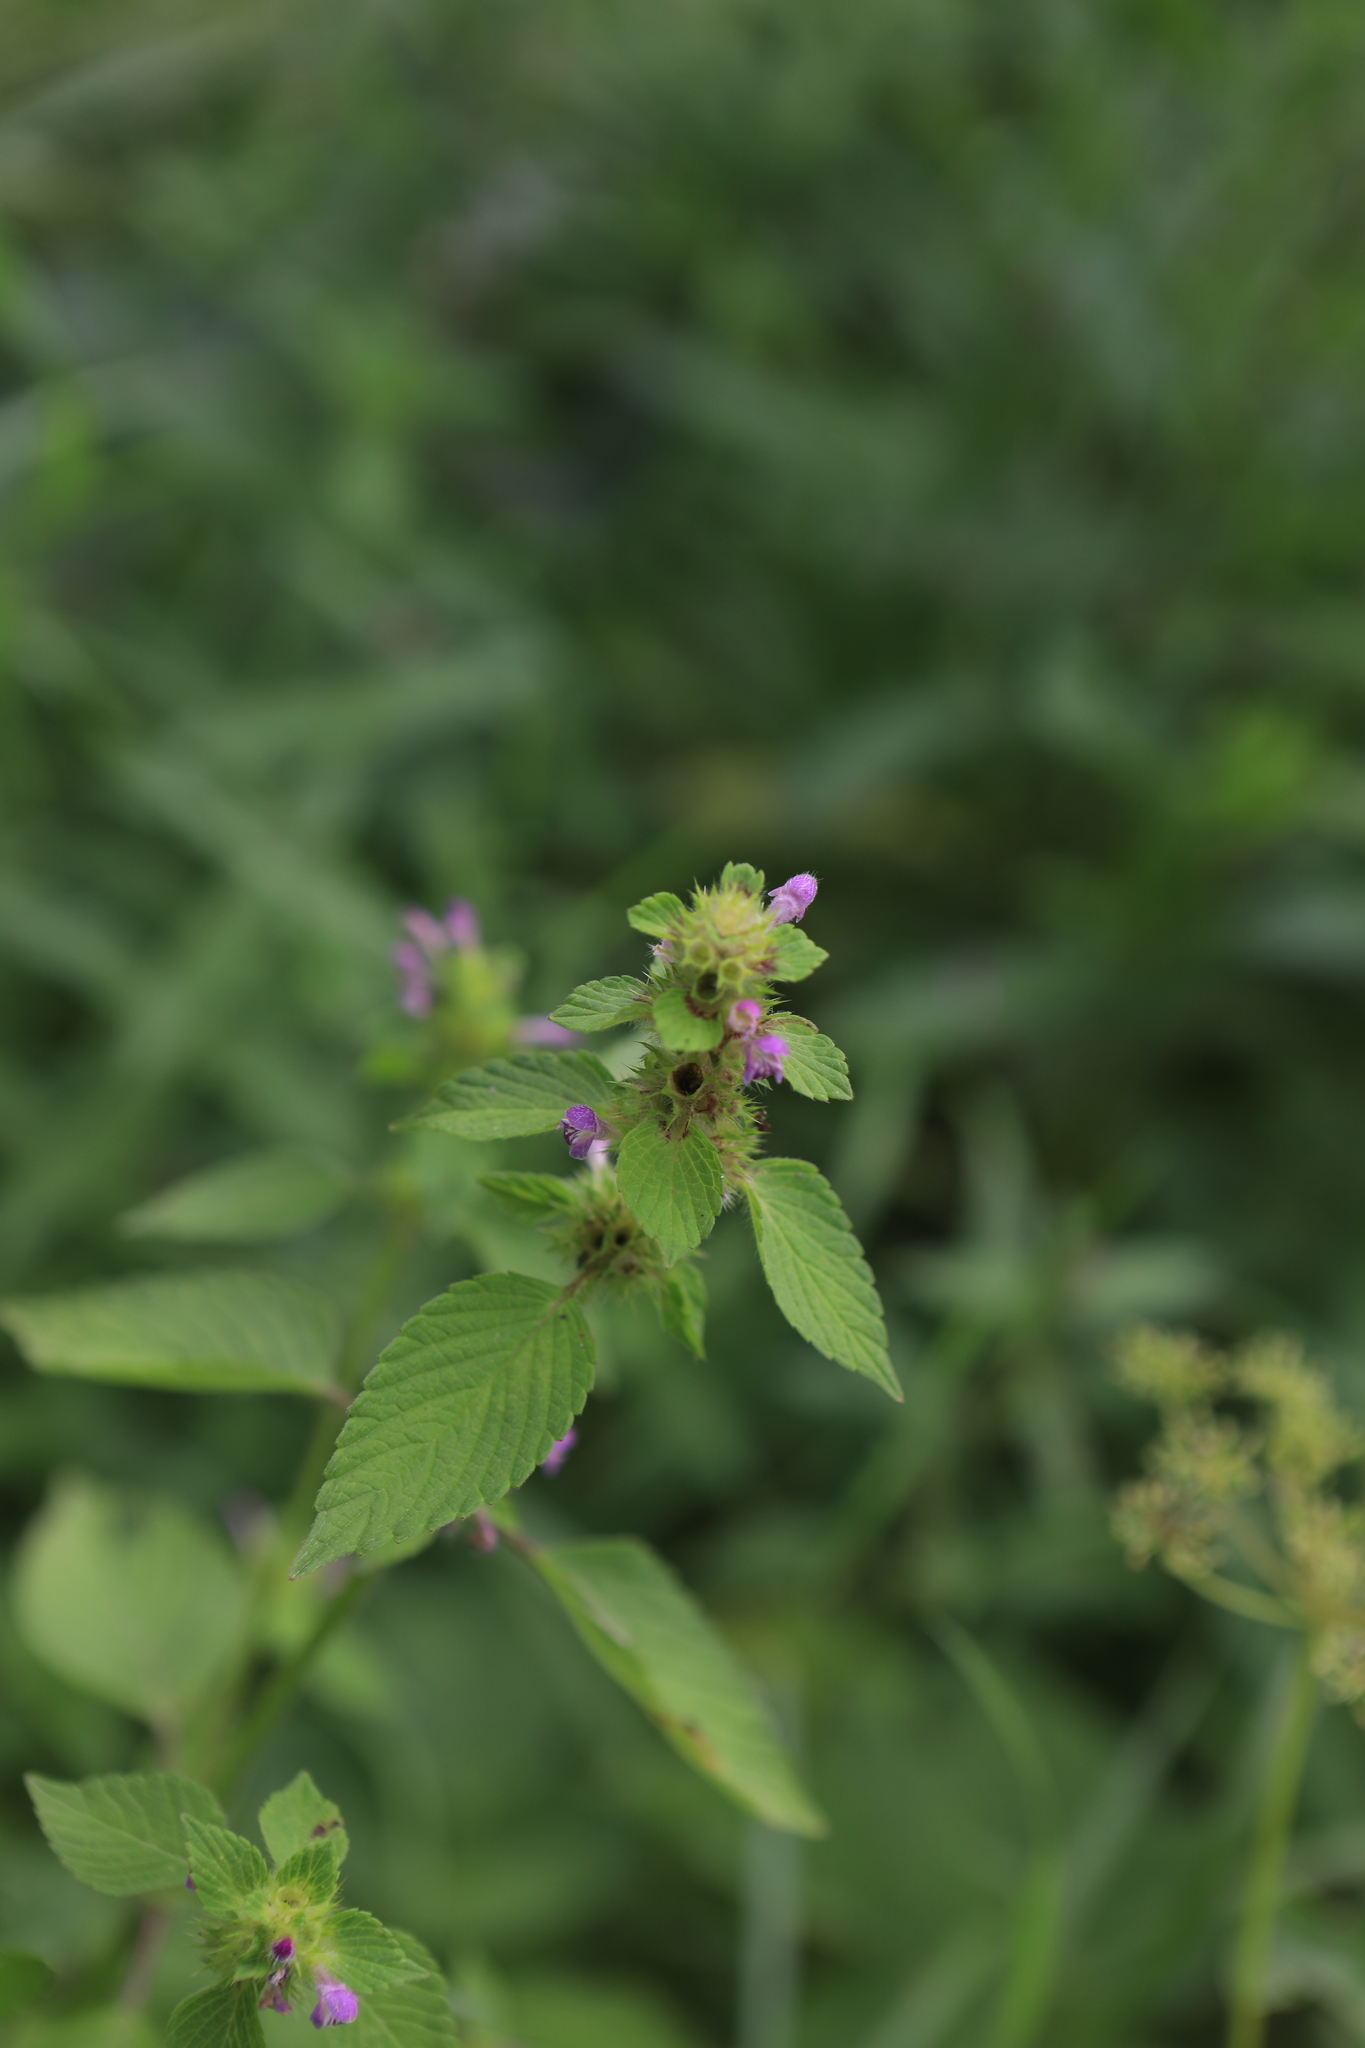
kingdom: Plantae
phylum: Tracheophyta
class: Magnoliopsida
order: Lamiales
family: Lamiaceae
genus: Galeopsis
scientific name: Galeopsis bifida
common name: Bifid hemp-nettle
